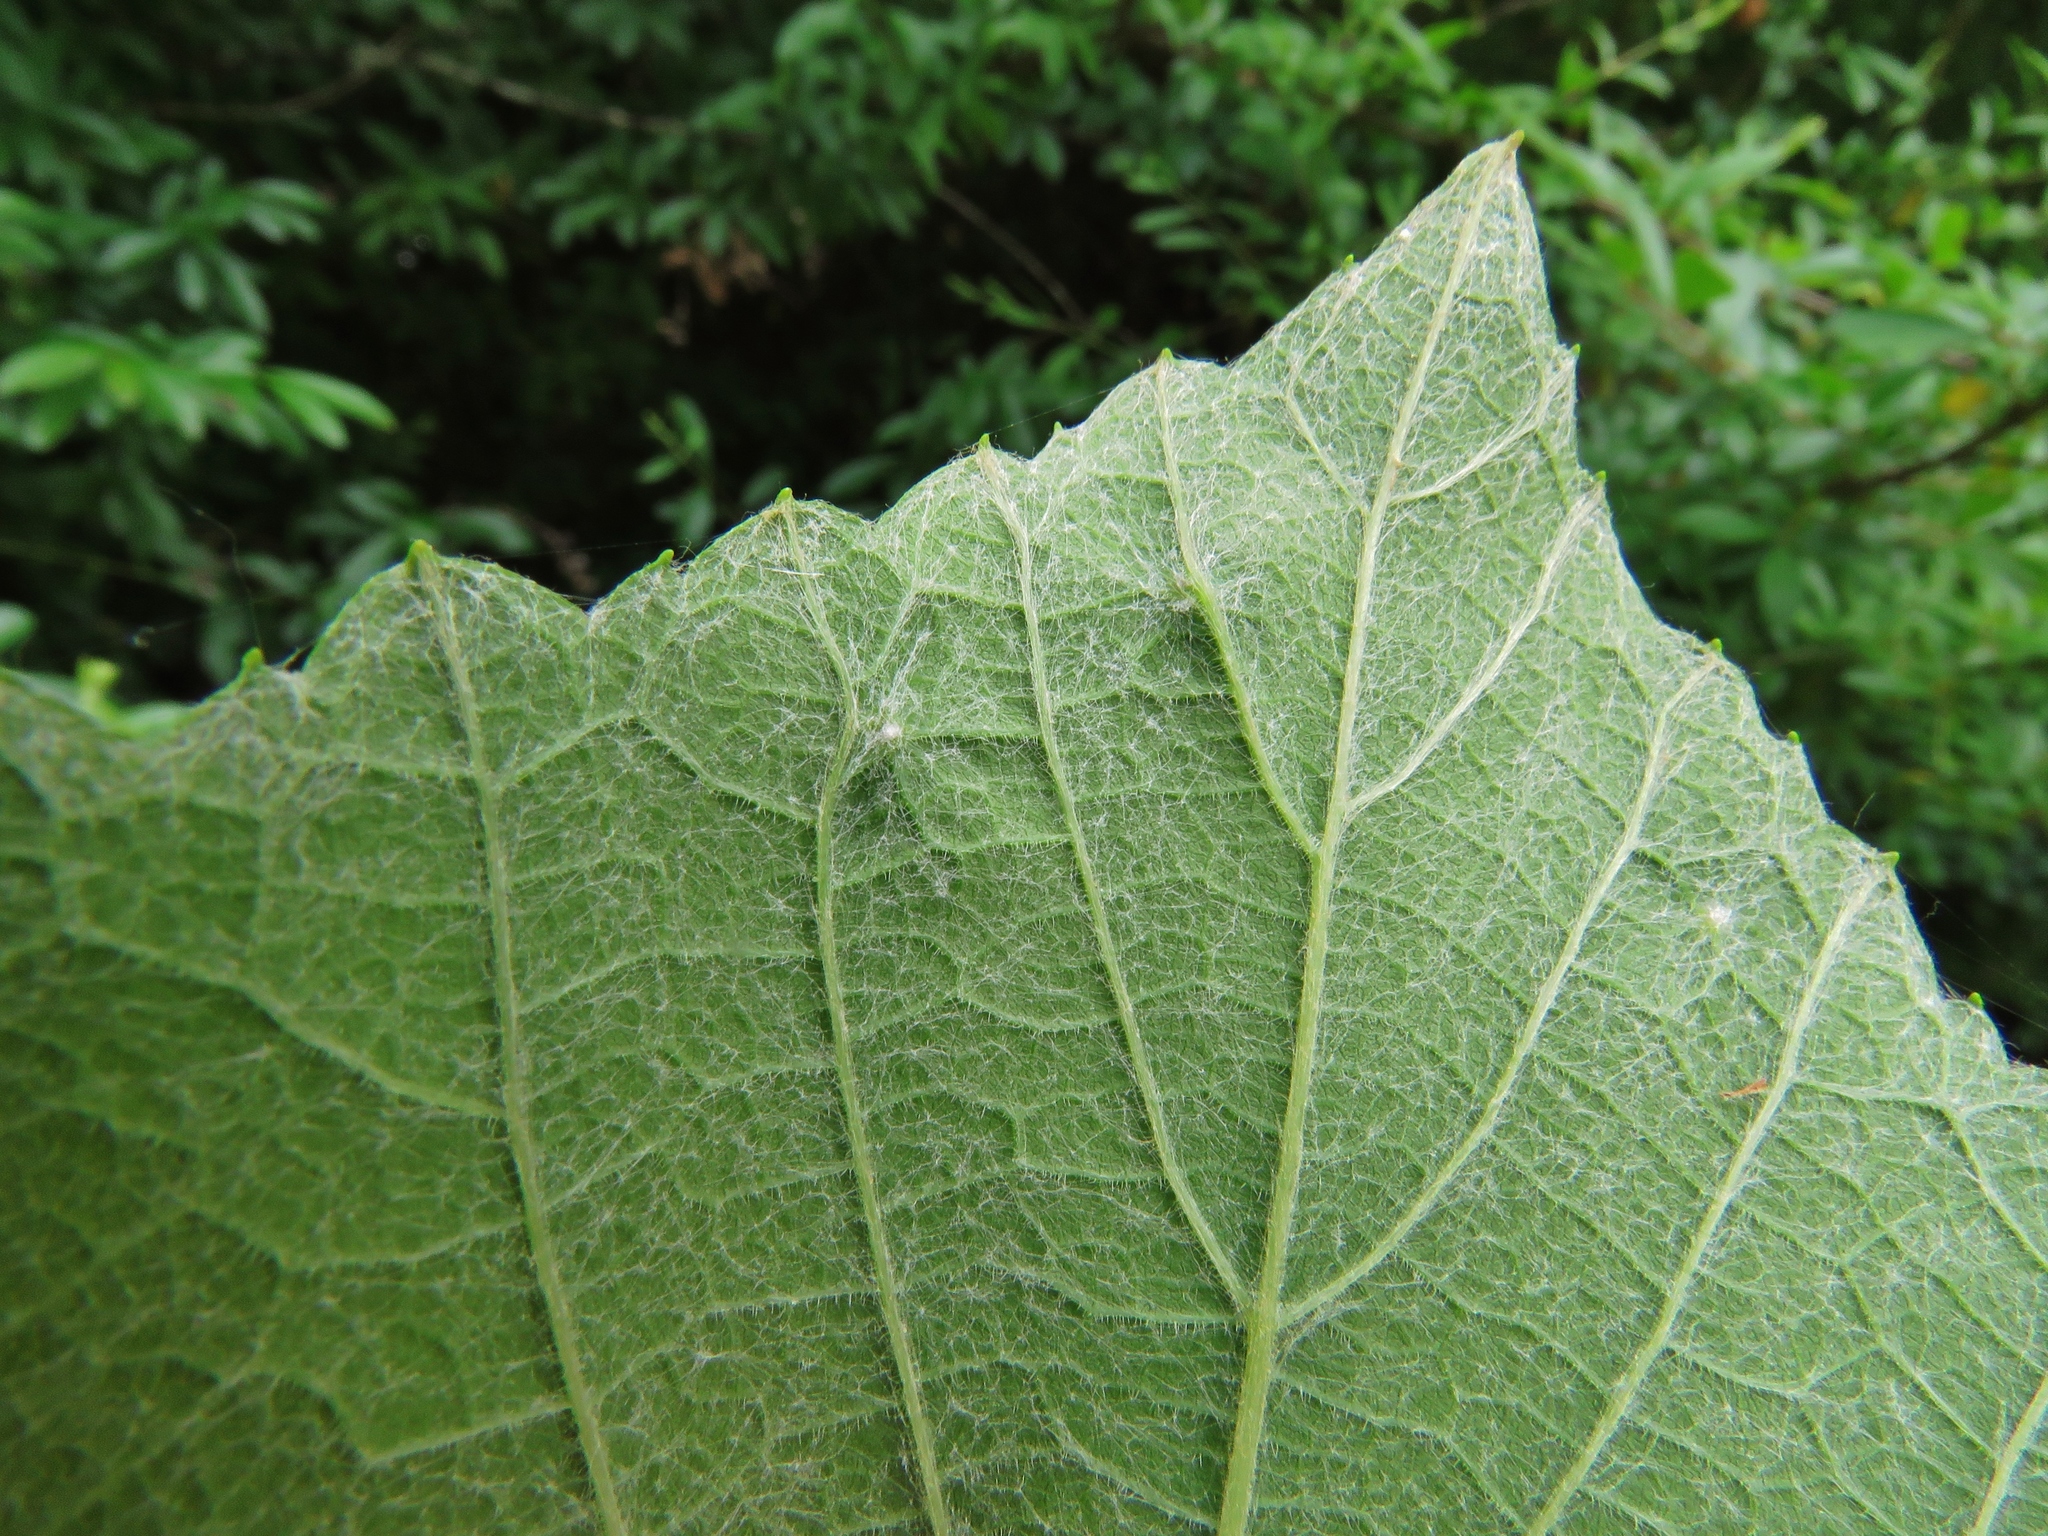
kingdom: Animalia
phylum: Arthropoda
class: Insecta
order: Diptera
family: Cecidomyiidae
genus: Ampelomyia
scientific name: Ampelomyia viticola
